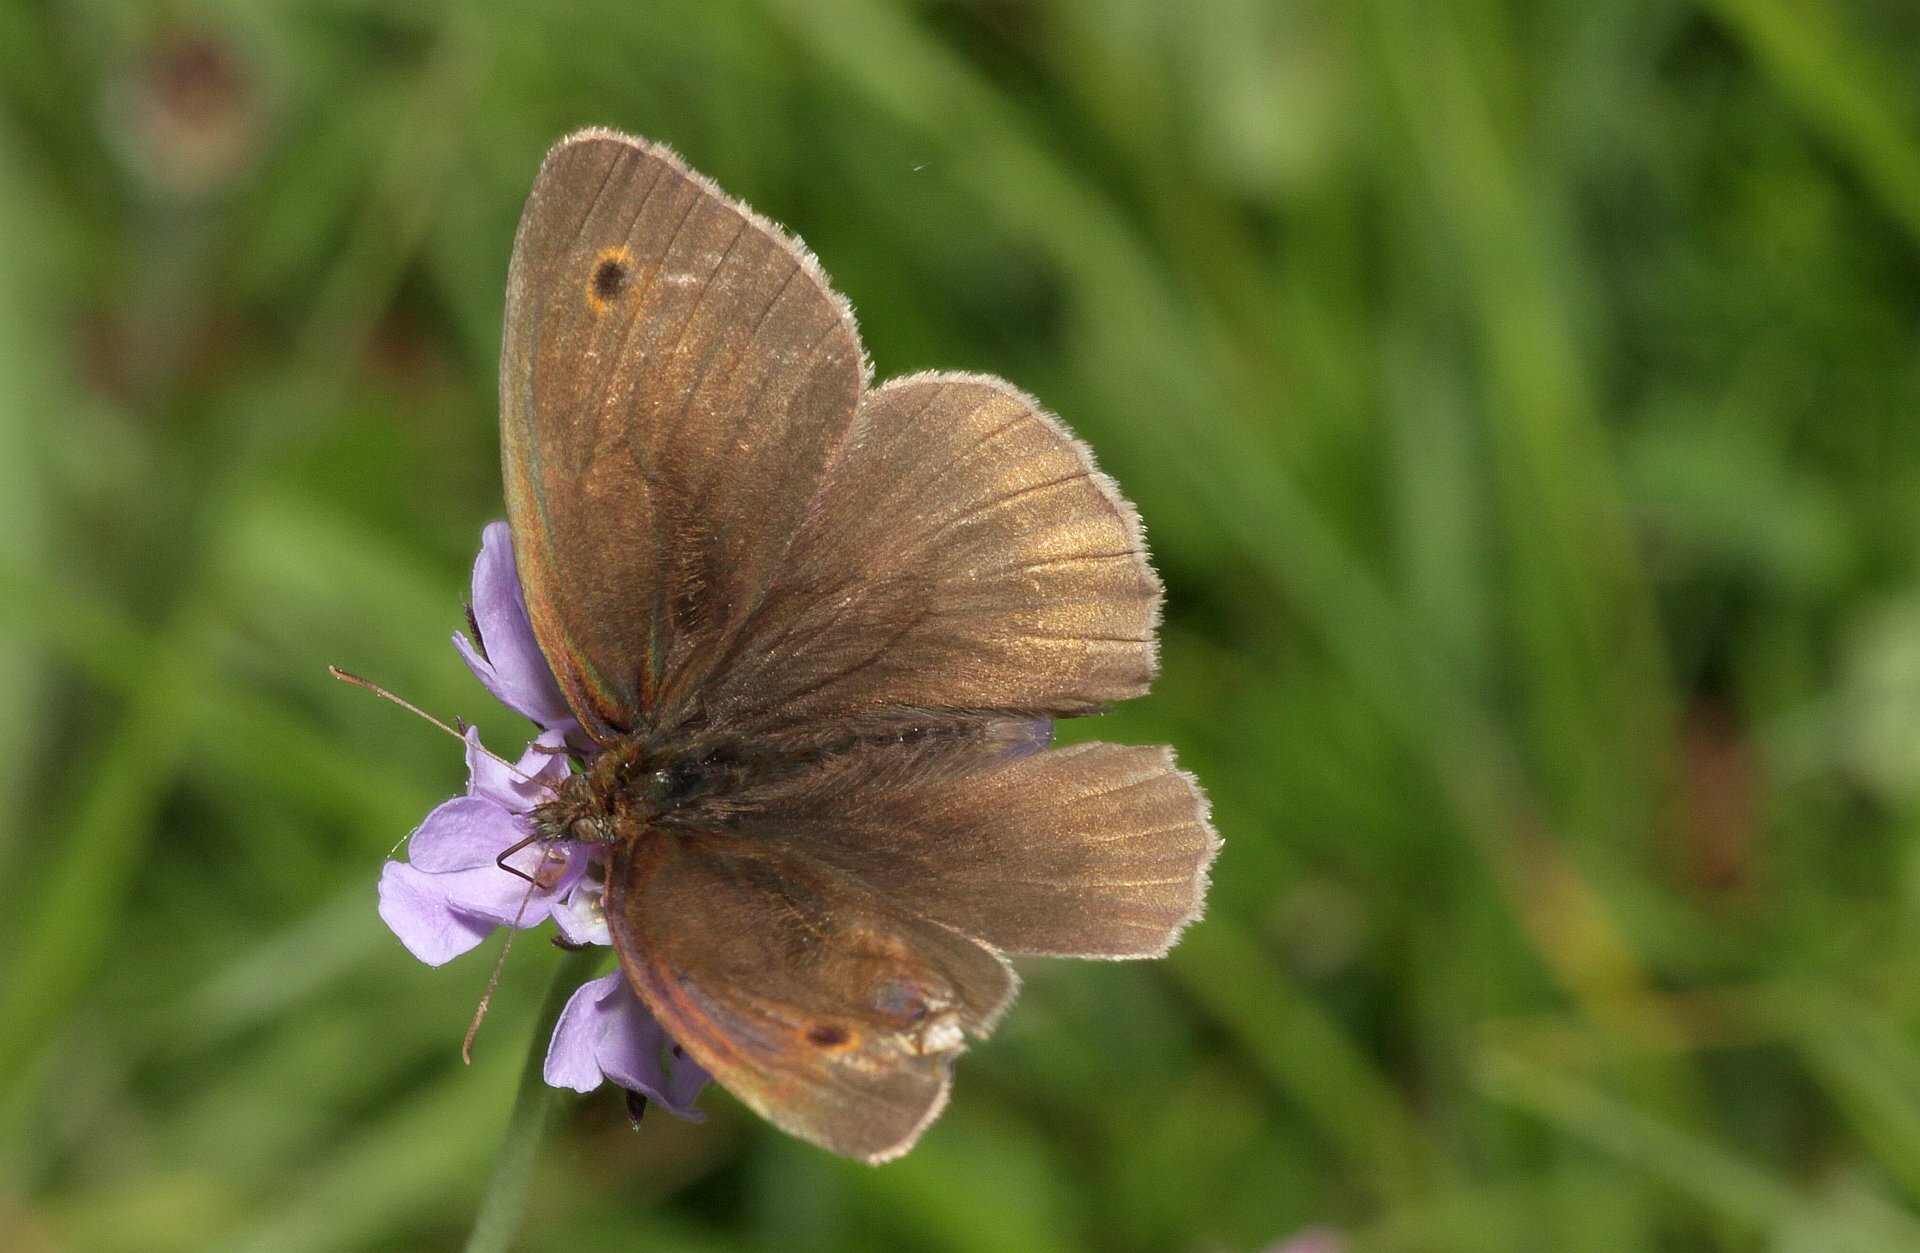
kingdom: Animalia
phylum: Arthropoda
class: Insecta
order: Lepidoptera
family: Nymphalidae
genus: Maniola
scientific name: Maniola jurtina
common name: Meadow brown
